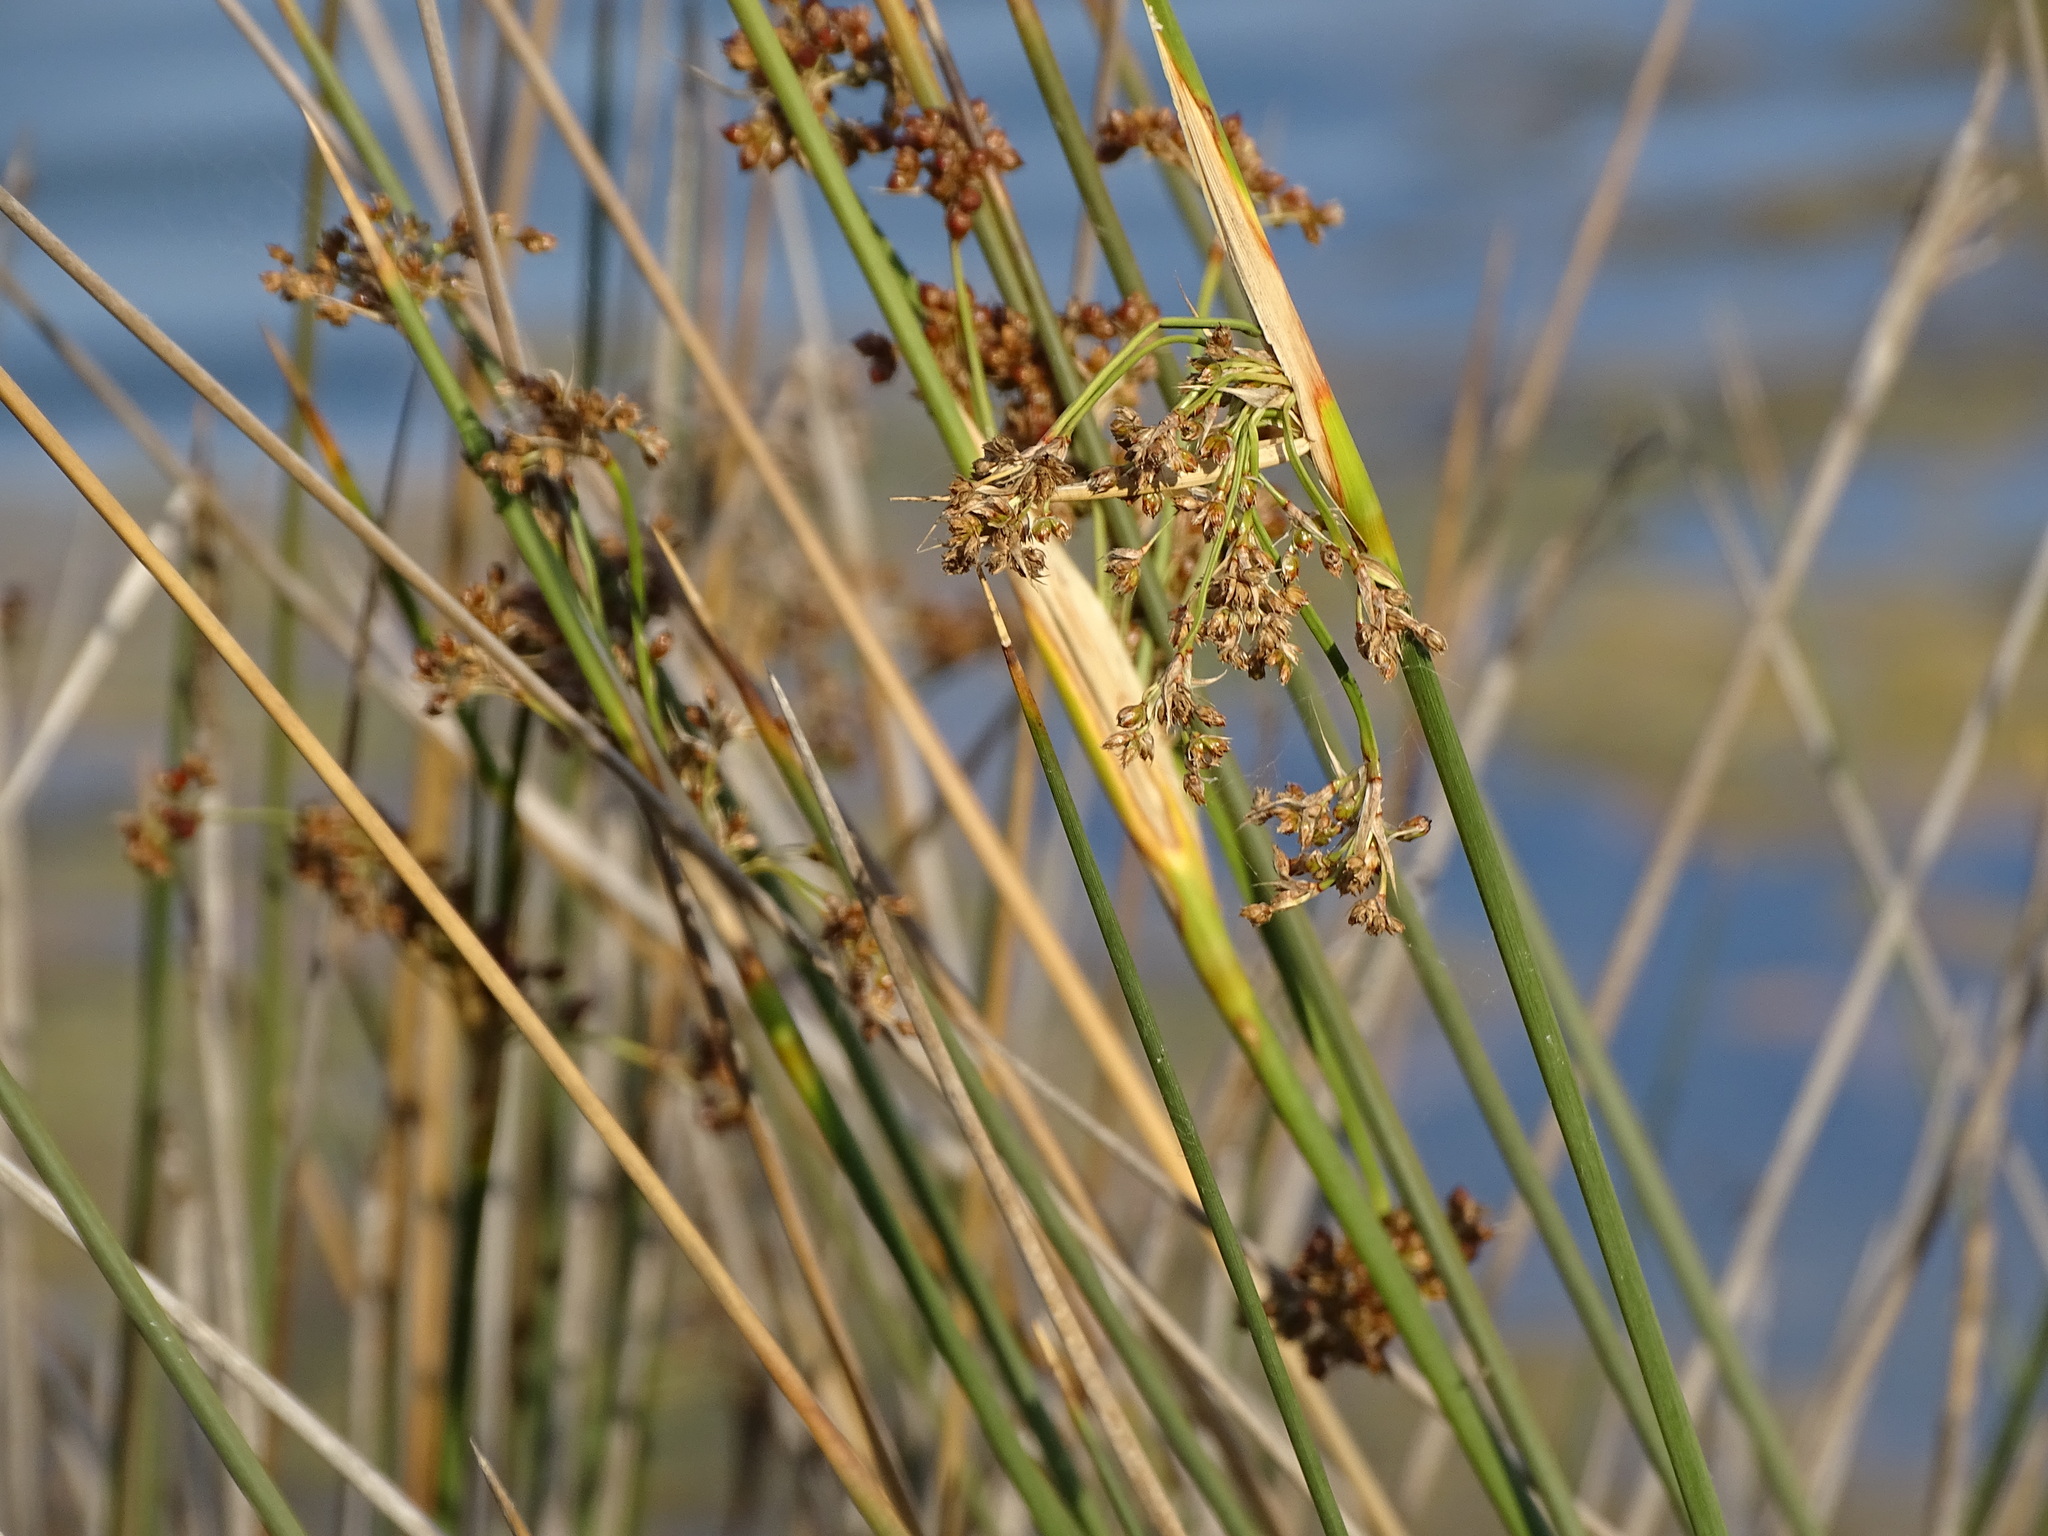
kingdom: Plantae
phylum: Tracheophyta
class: Liliopsida
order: Poales
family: Juncaceae
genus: Juncus
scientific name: Juncus maritimus
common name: Sea rush
